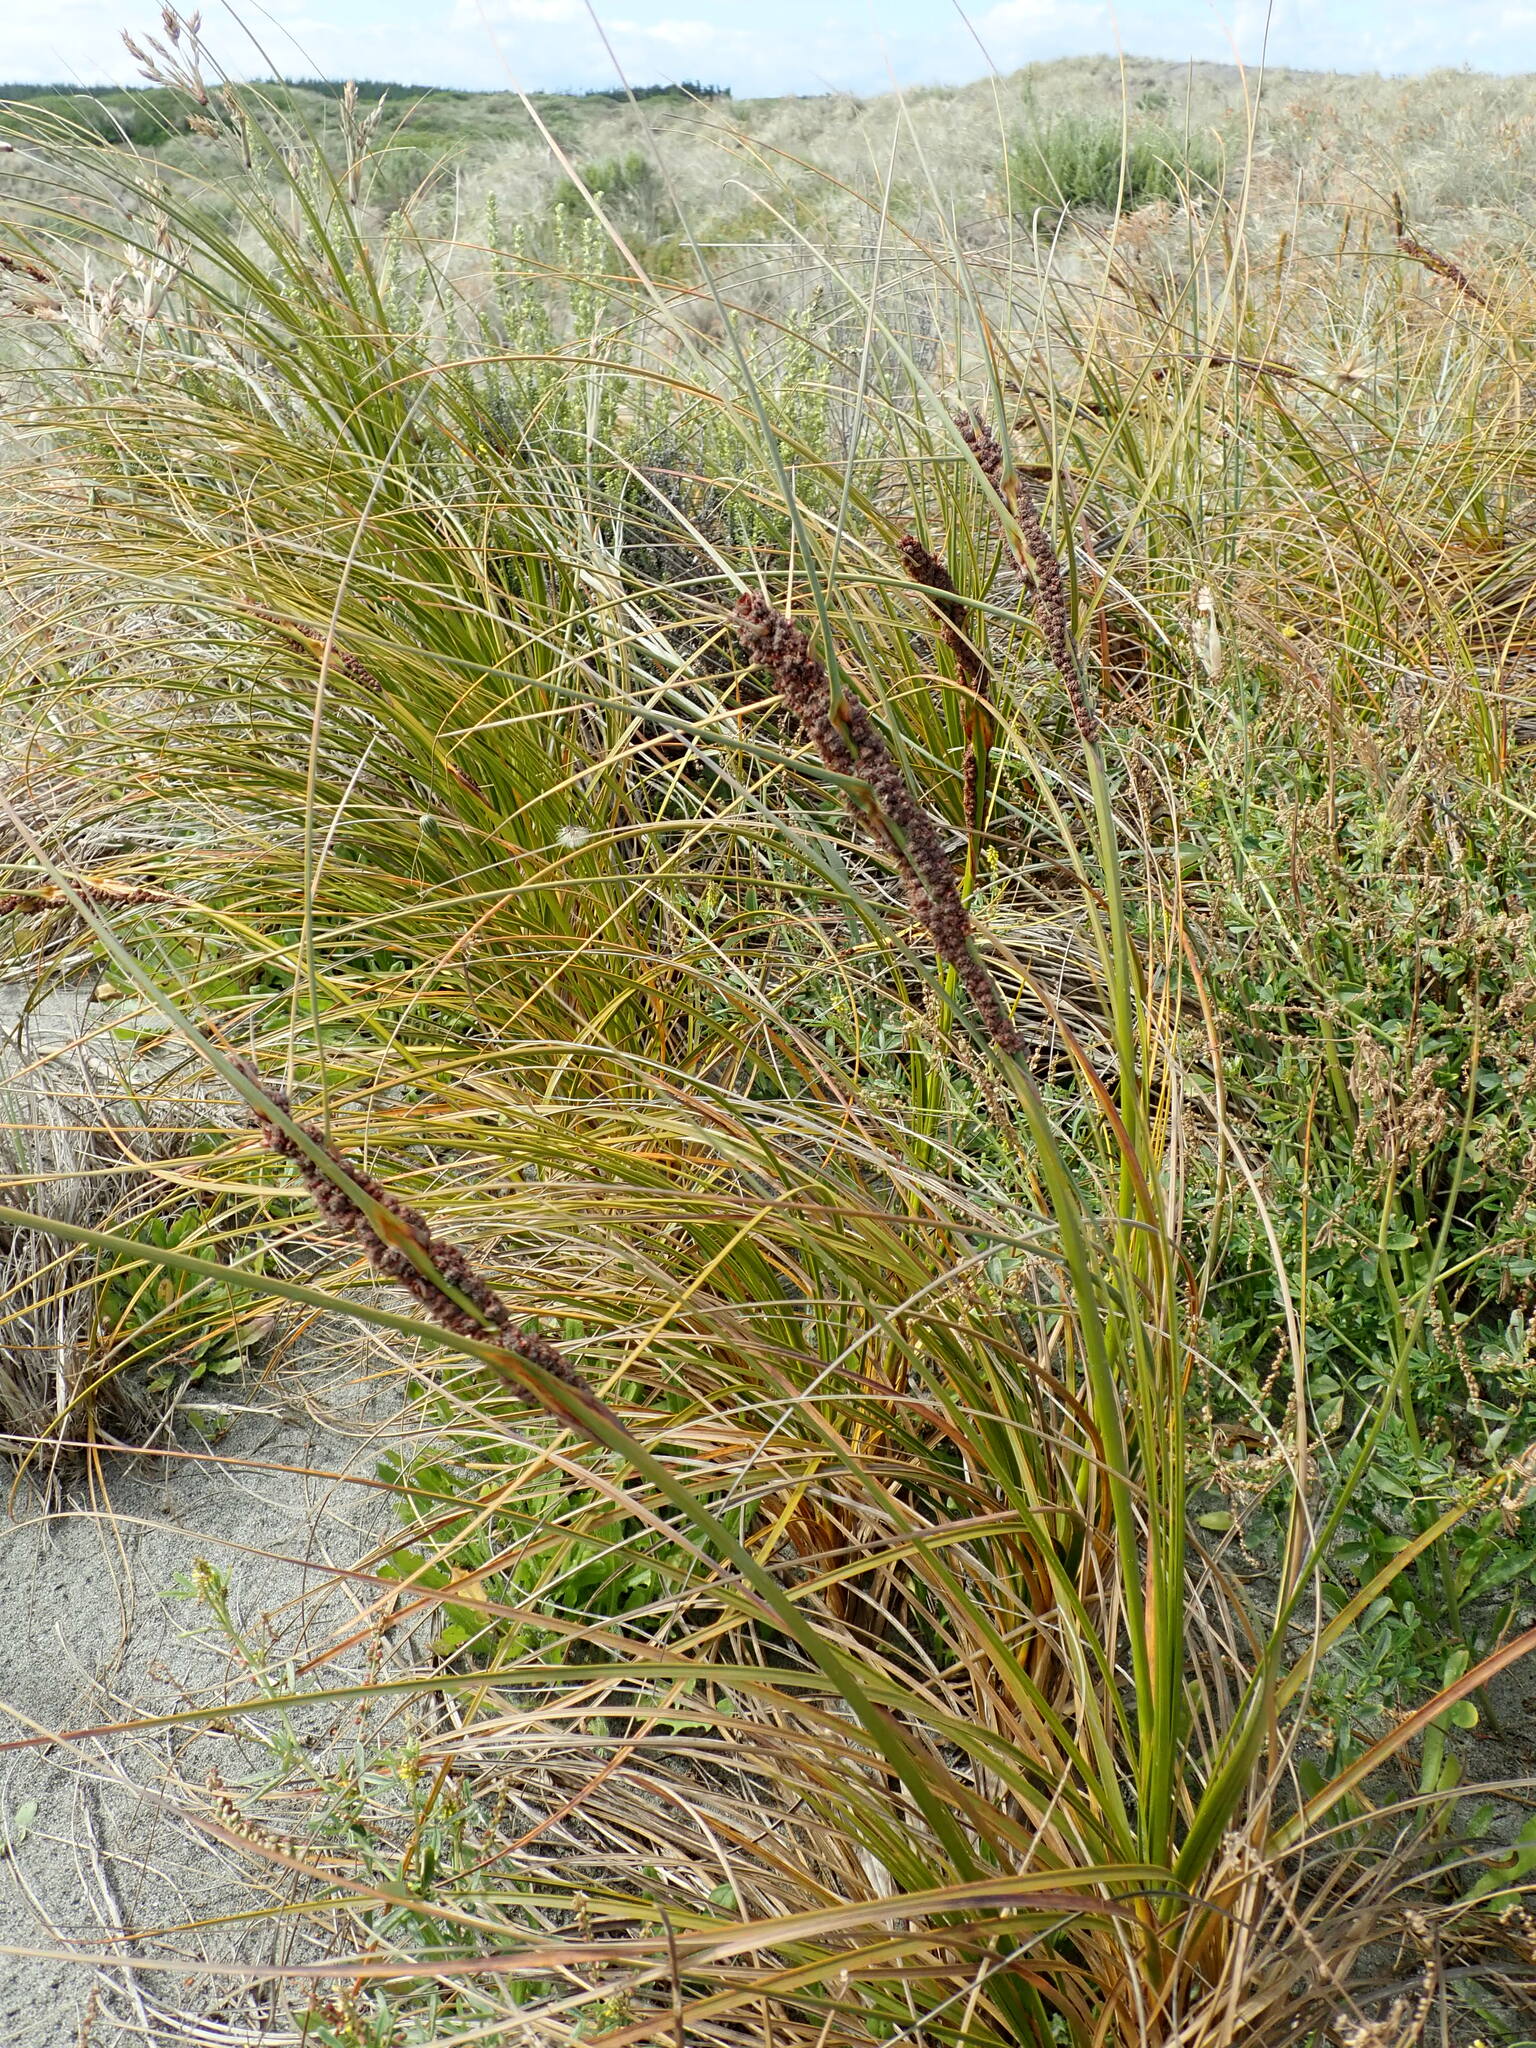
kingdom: Plantae
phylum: Tracheophyta
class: Liliopsida
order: Poales
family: Cyperaceae
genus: Ficinia
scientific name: Ficinia spiralis
